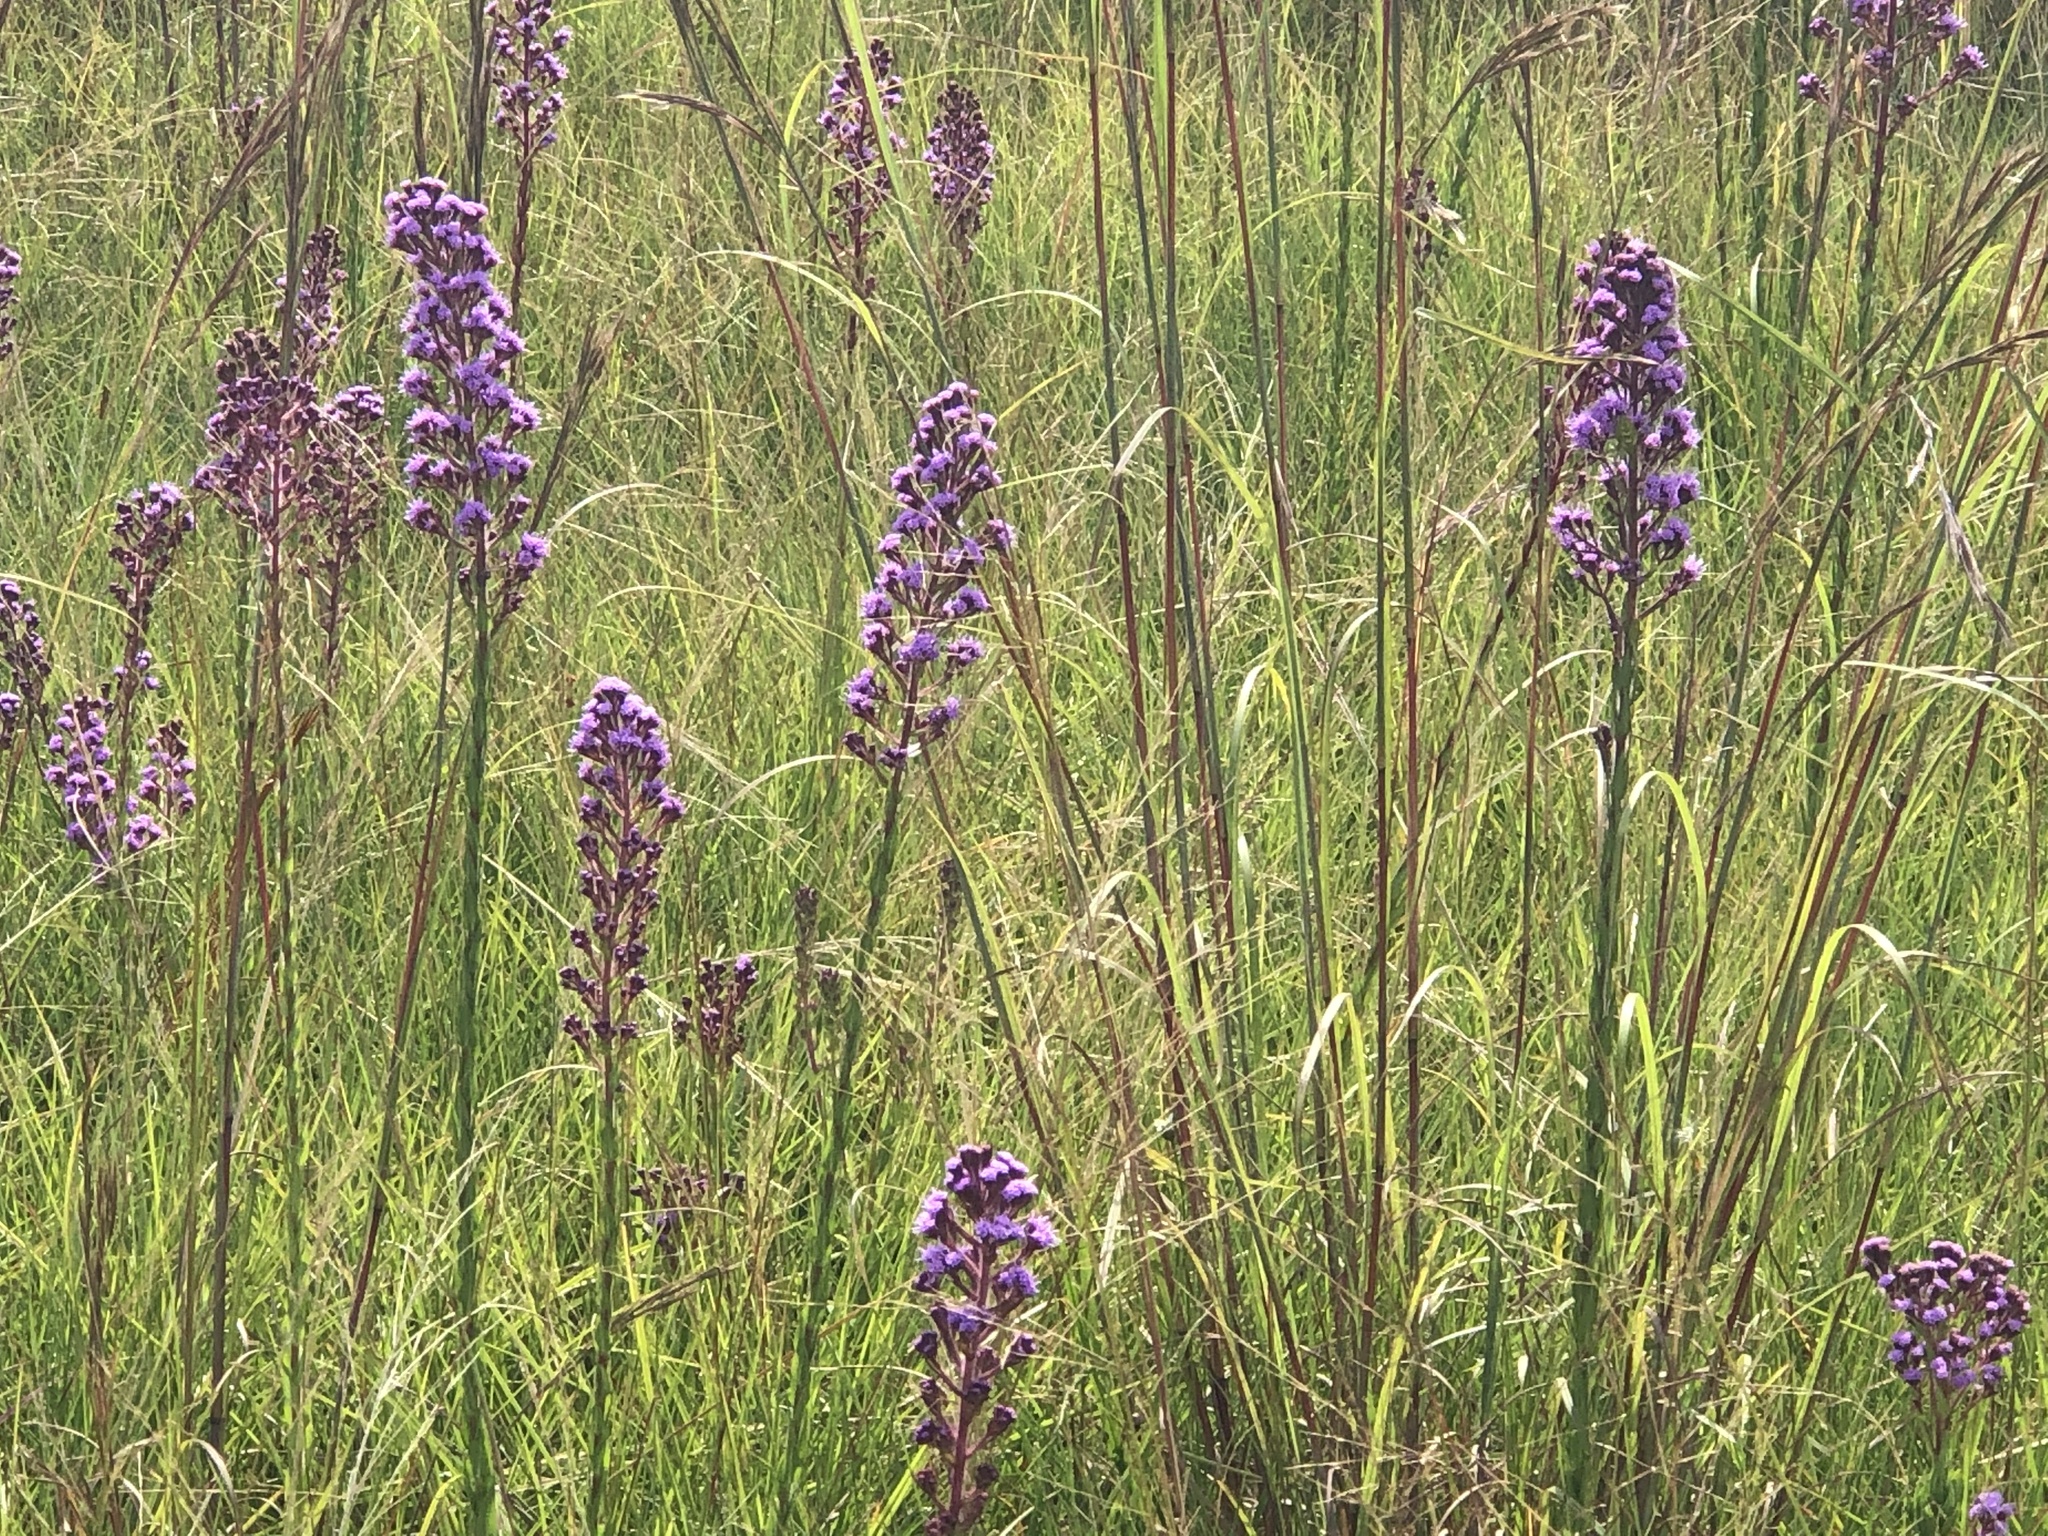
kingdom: Plantae
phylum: Tracheophyta
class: Magnoliopsida
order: Asterales
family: Asteraceae
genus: Carphephorus
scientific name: Carphephorus paniculatus
